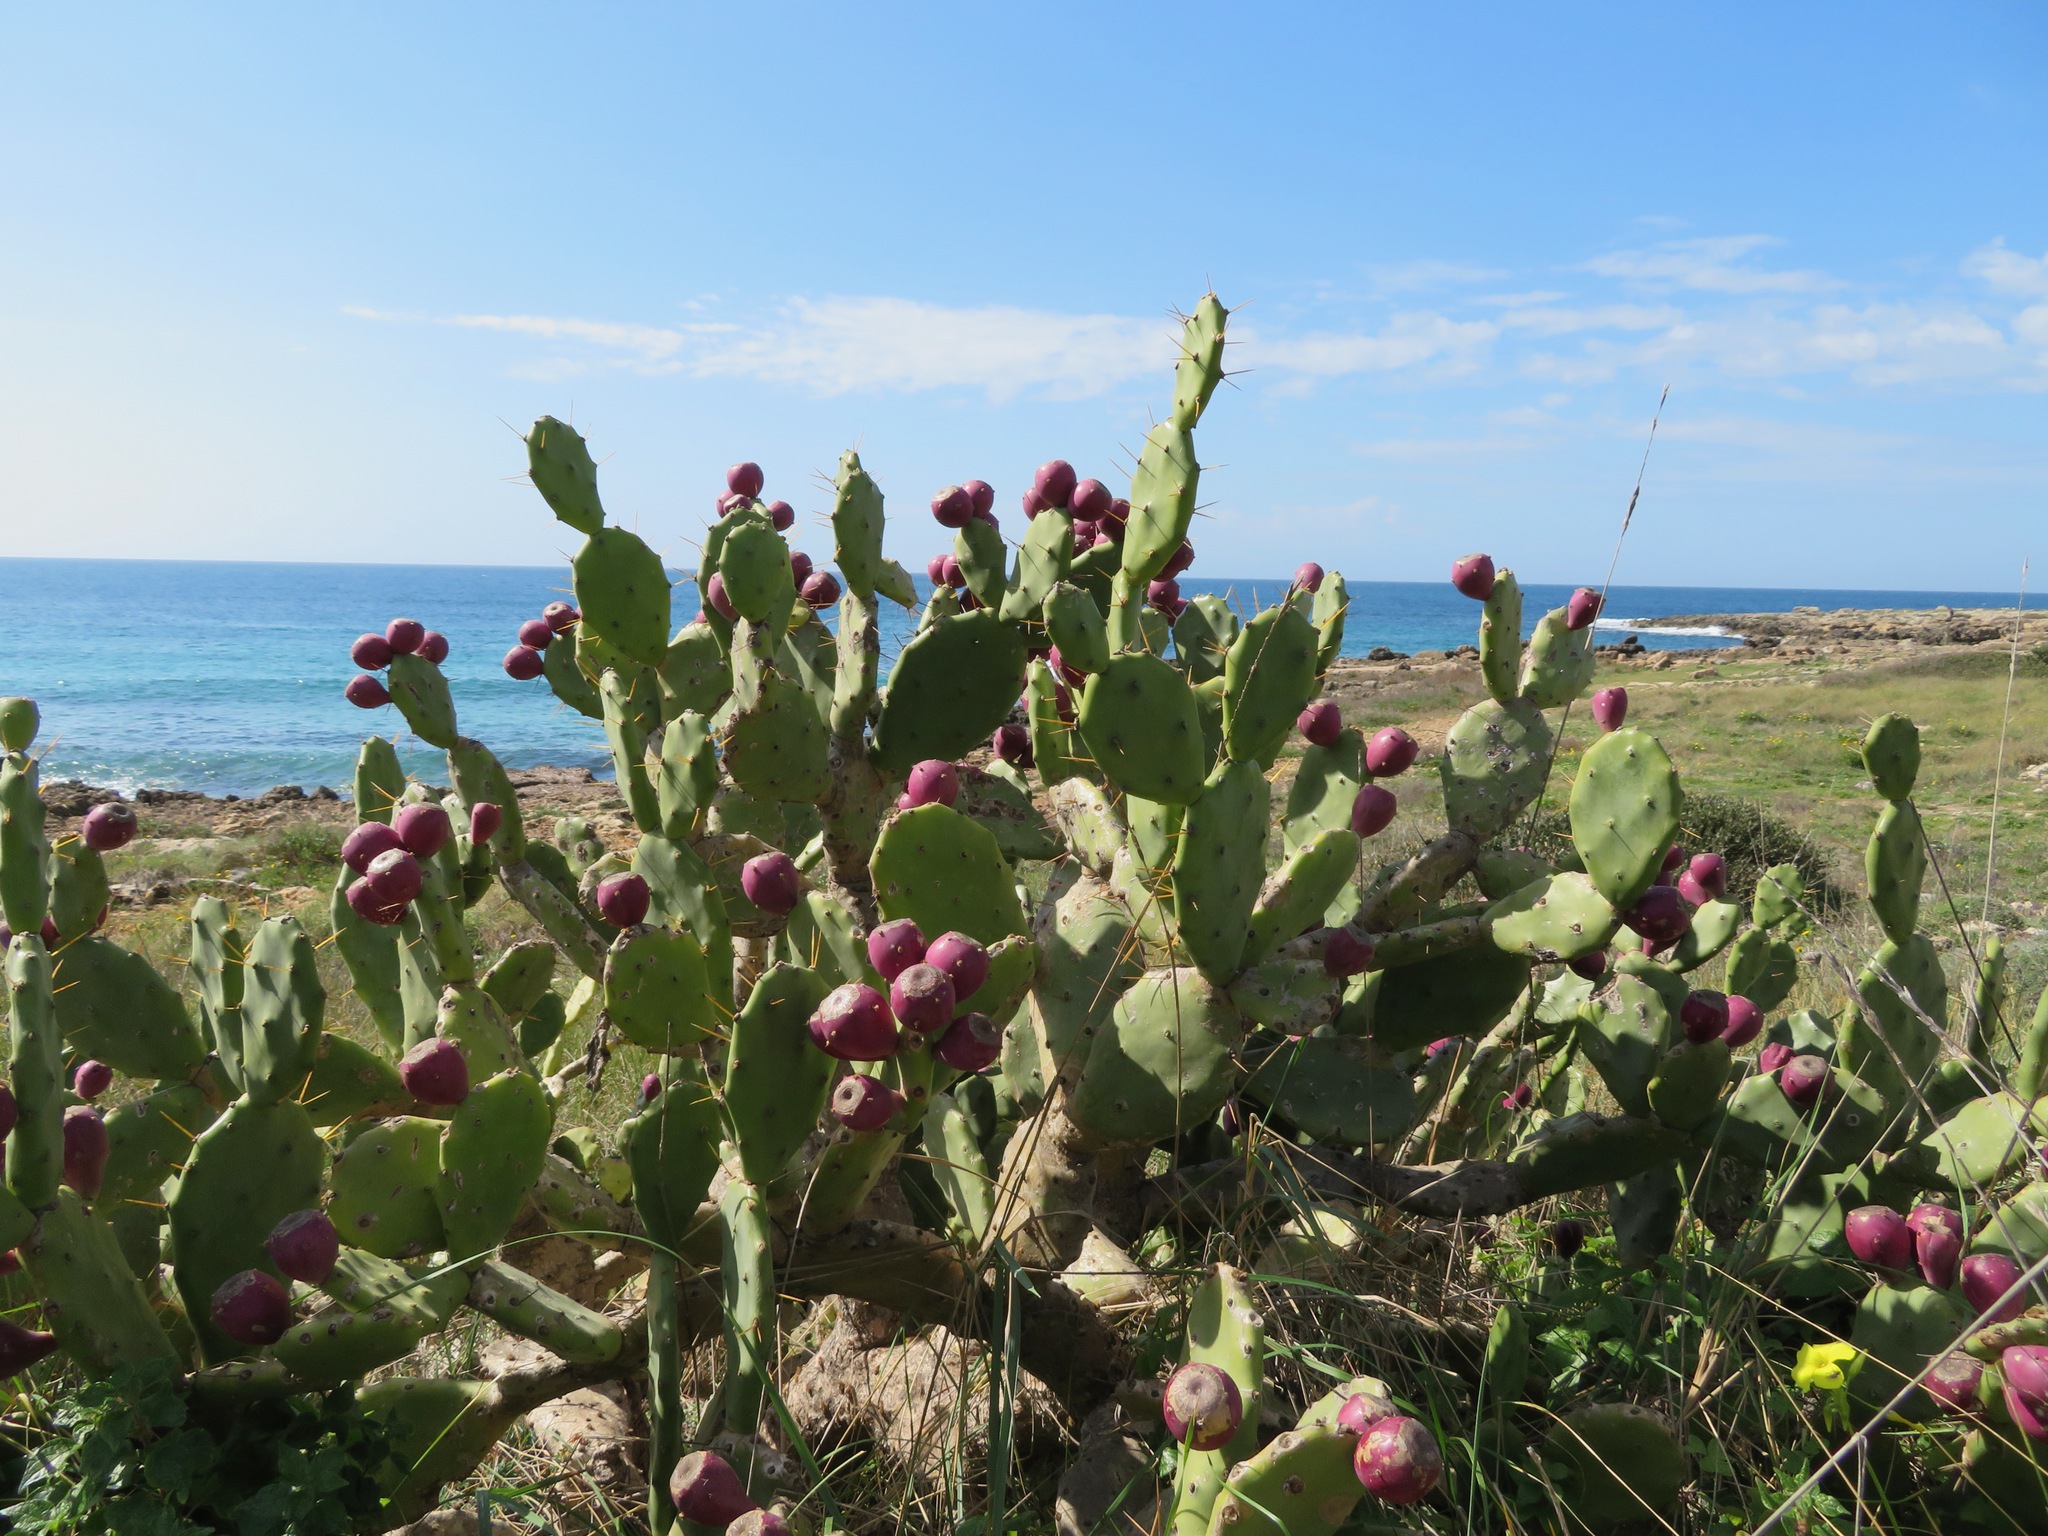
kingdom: Plantae
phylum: Tracheophyta
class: Magnoliopsida
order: Caryophyllales
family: Cactaceae
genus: Opuntia
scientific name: Opuntia stricta
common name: Erect pricklypear
